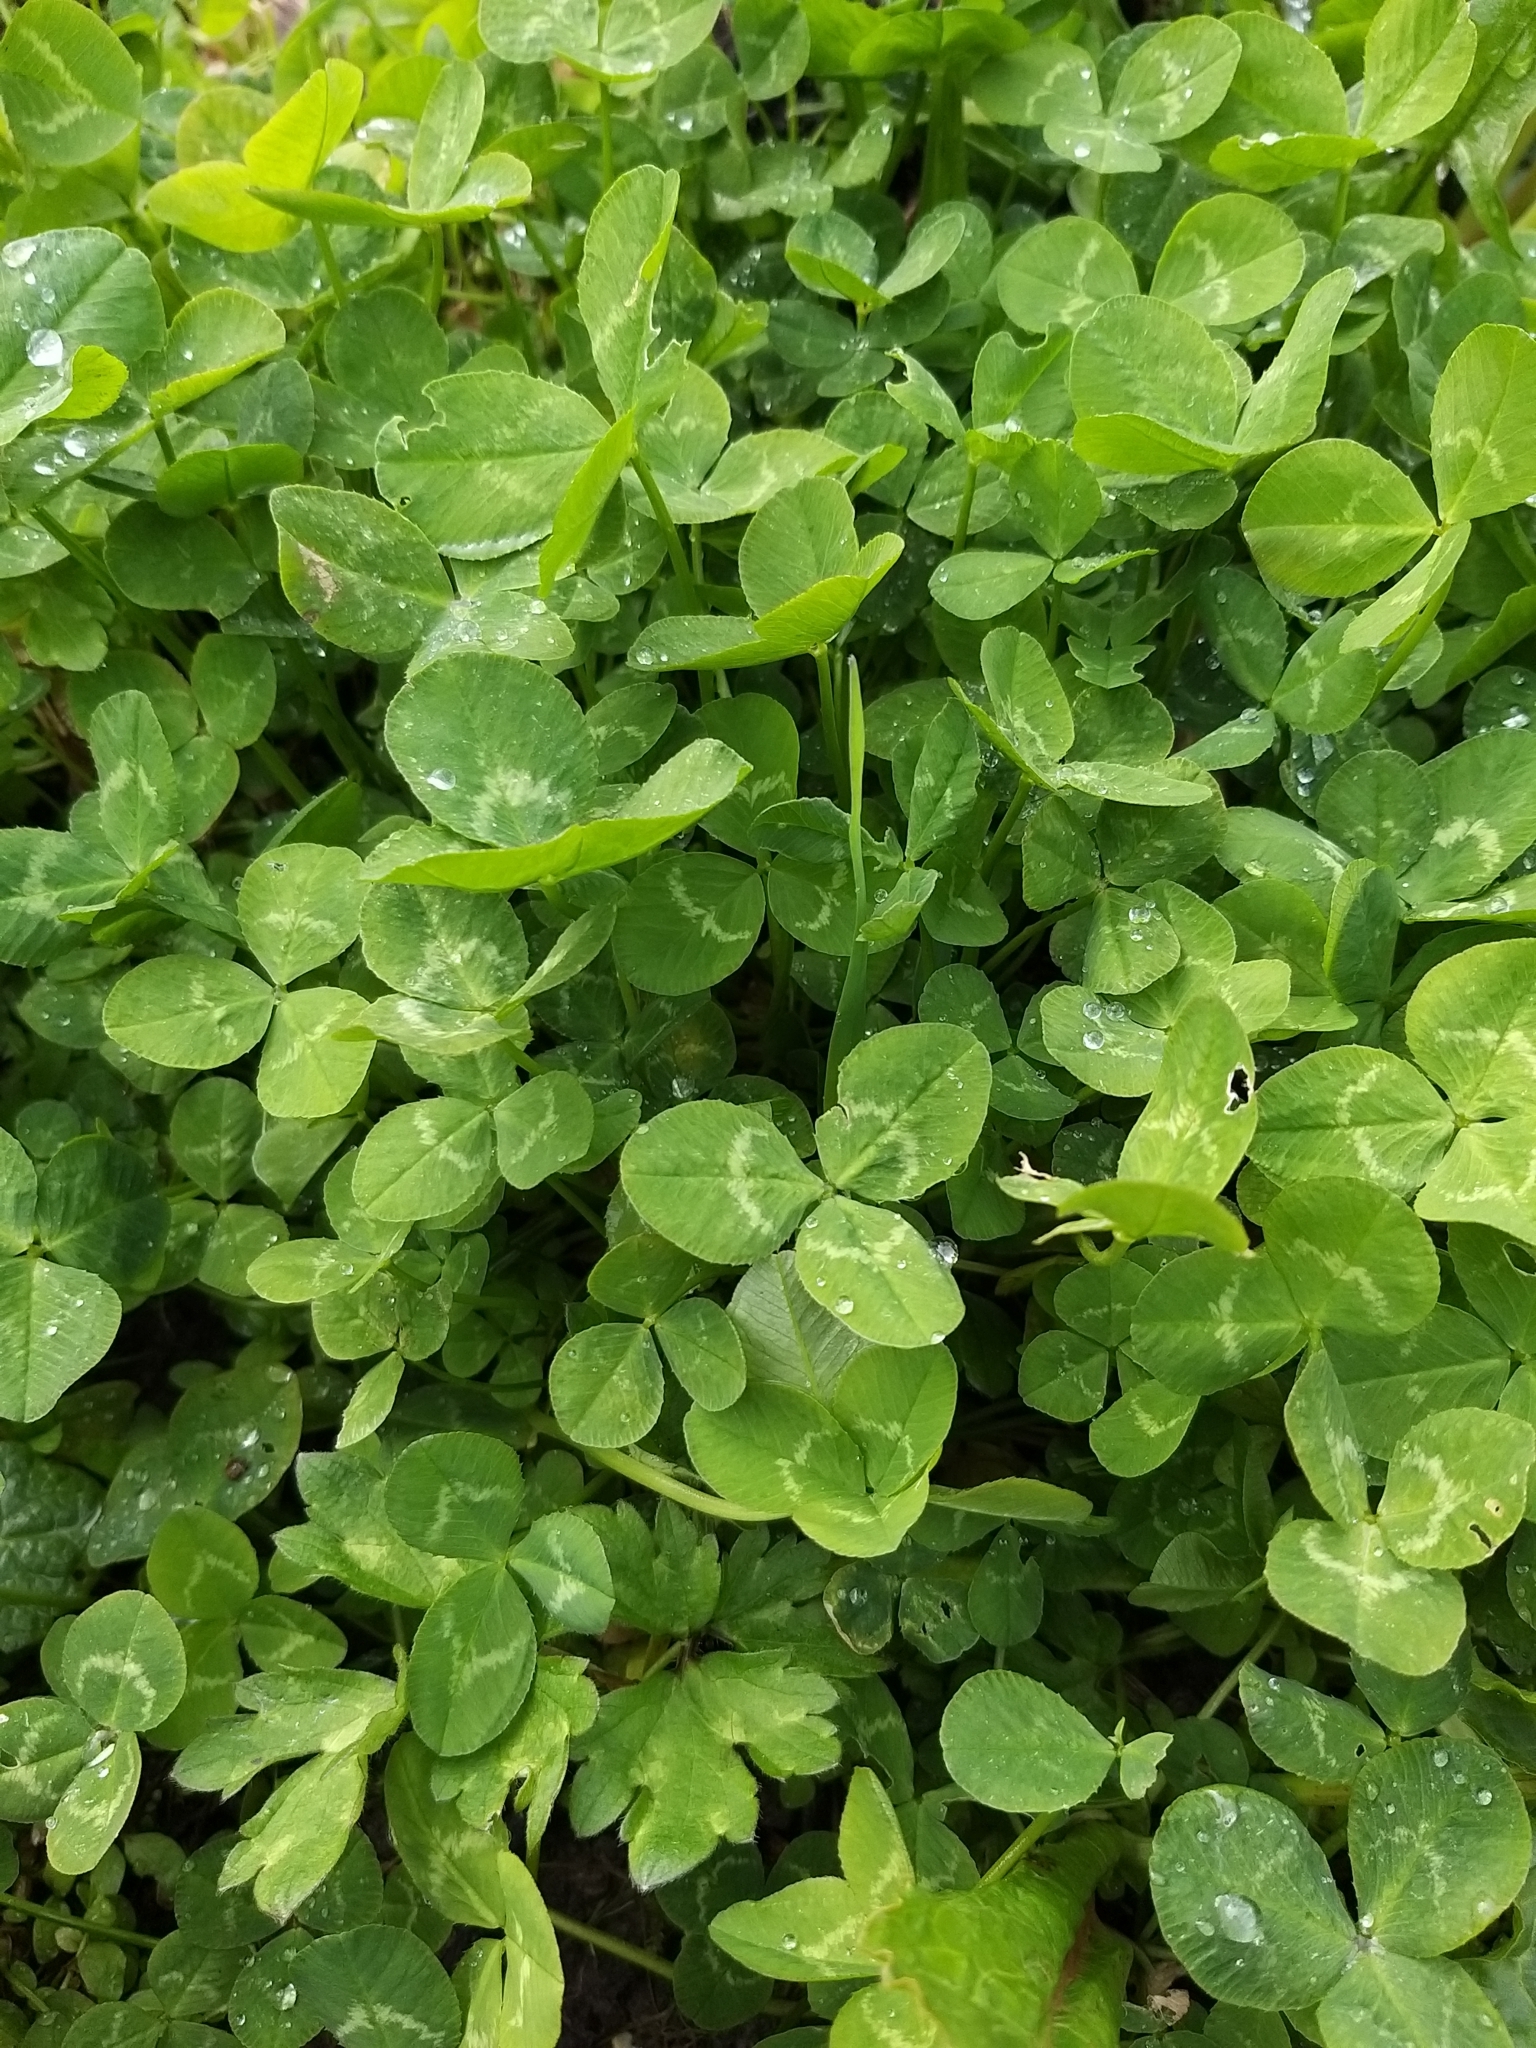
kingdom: Plantae
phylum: Tracheophyta
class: Magnoliopsida
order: Fabales
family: Fabaceae
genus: Trifolium
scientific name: Trifolium repens
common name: White clover
